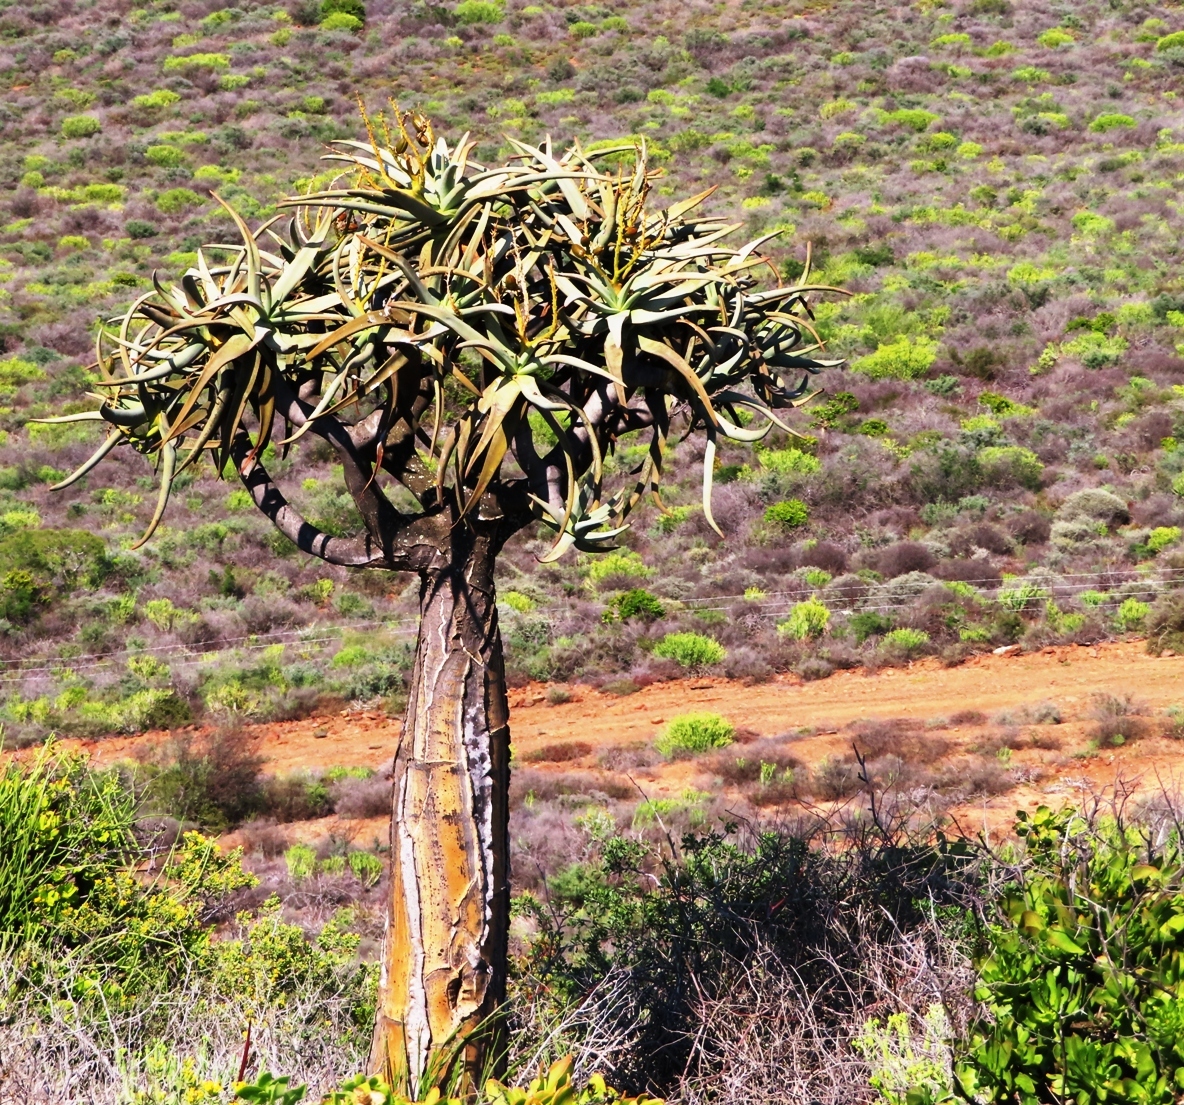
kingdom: Plantae
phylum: Tracheophyta
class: Liliopsida
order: Asparagales
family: Asphodelaceae
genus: Aloidendron
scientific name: Aloidendron dichotomum
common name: Quiver tree
